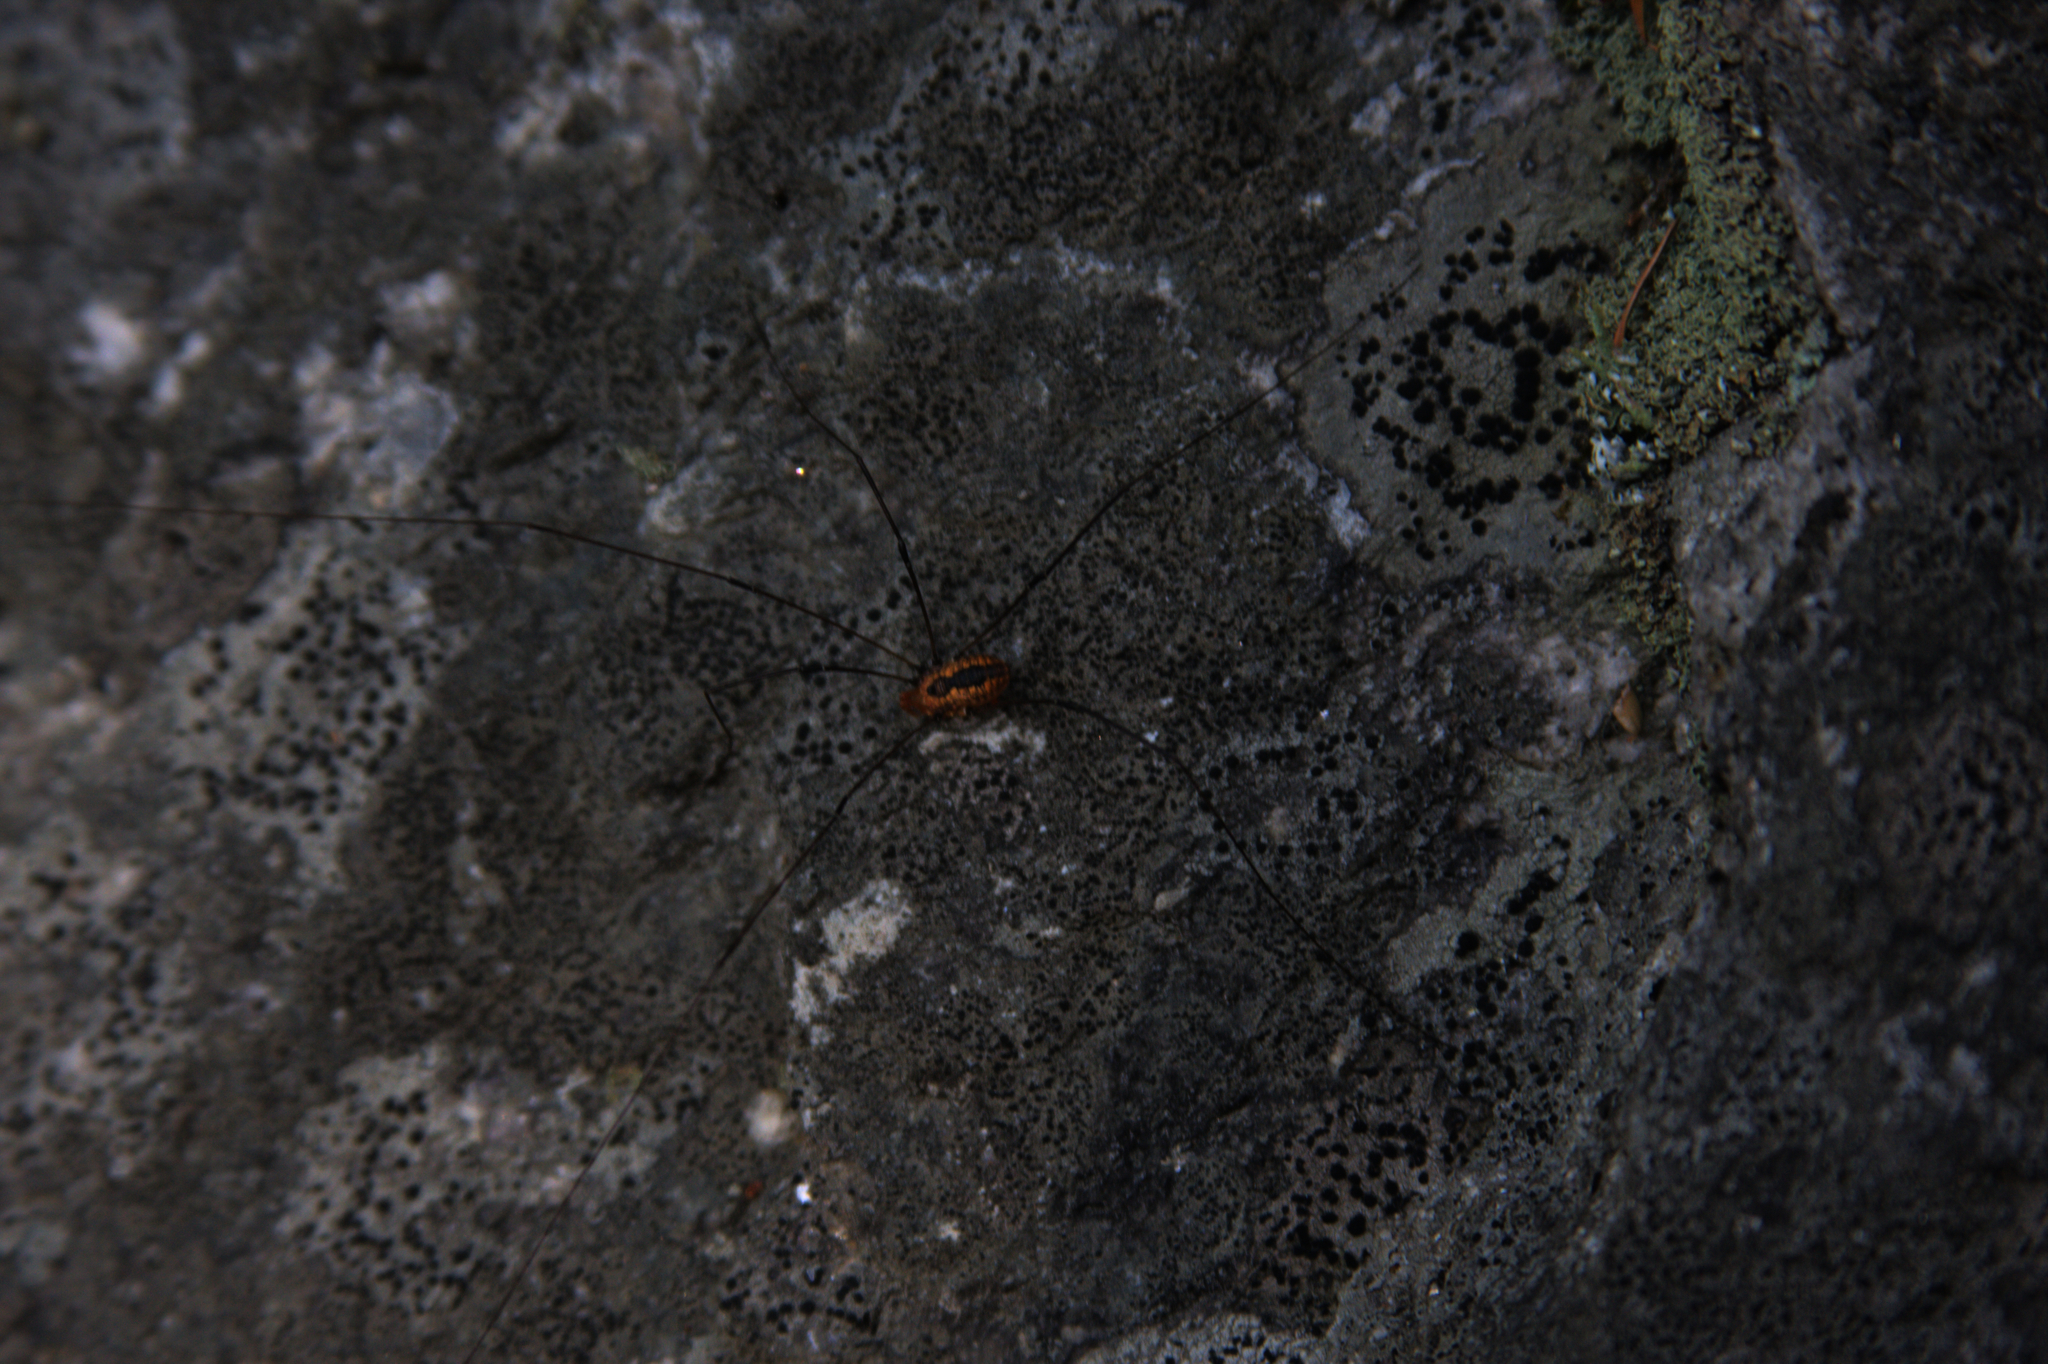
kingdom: Animalia
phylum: Arthropoda
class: Arachnida
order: Opiliones
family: Sclerosomatidae
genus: Leiobunum
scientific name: Leiobunum vittatum
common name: Eastern harvestman
